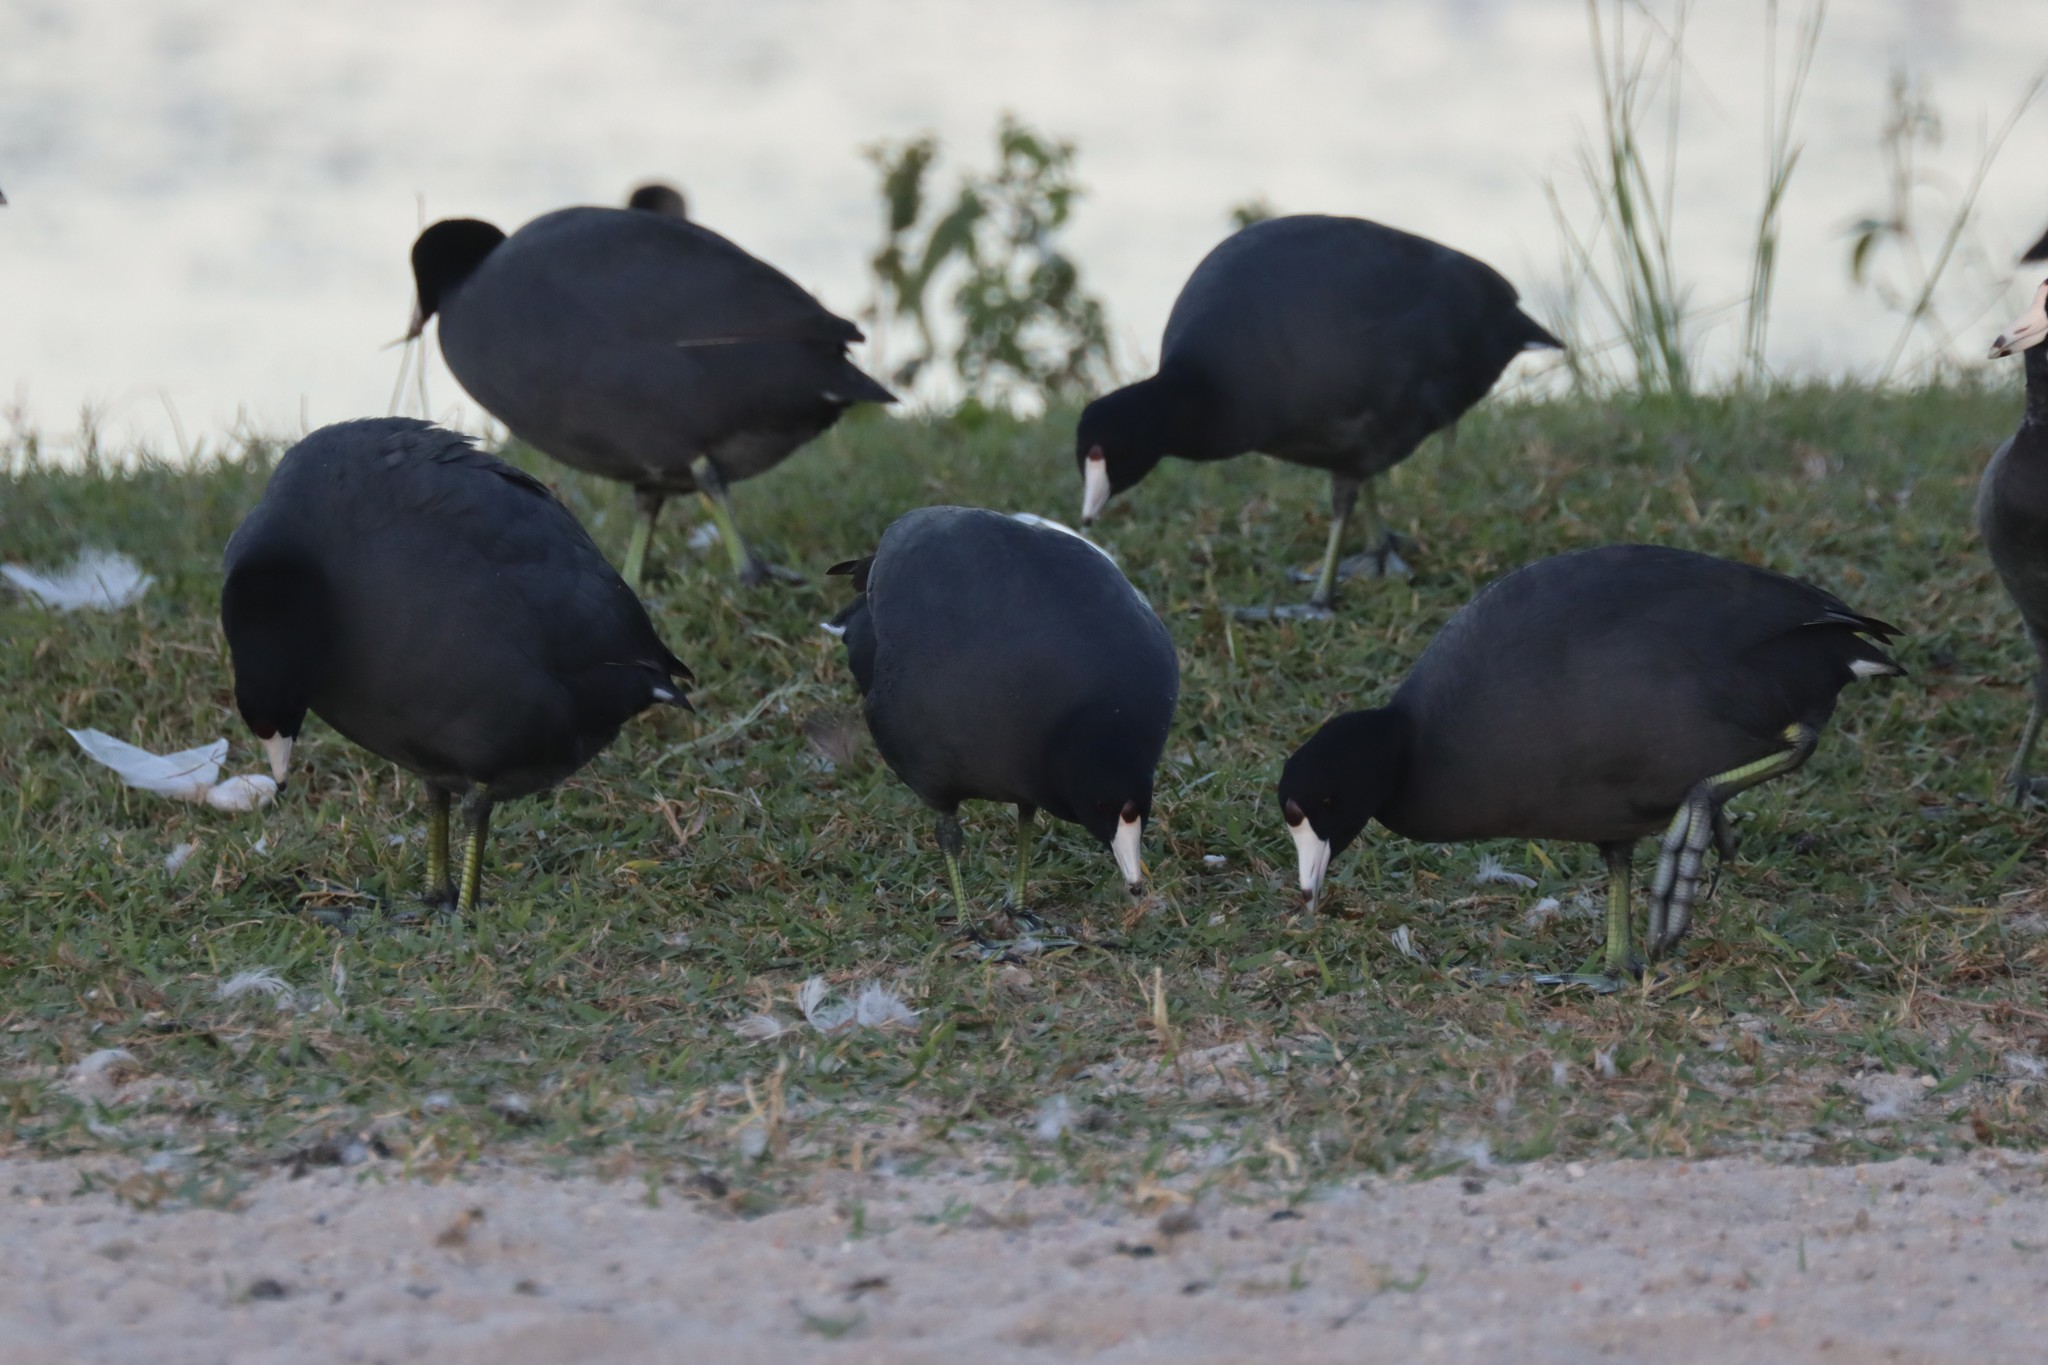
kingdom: Animalia
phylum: Chordata
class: Aves
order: Gruiformes
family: Rallidae
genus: Fulica
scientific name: Fulica americana
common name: American coot
